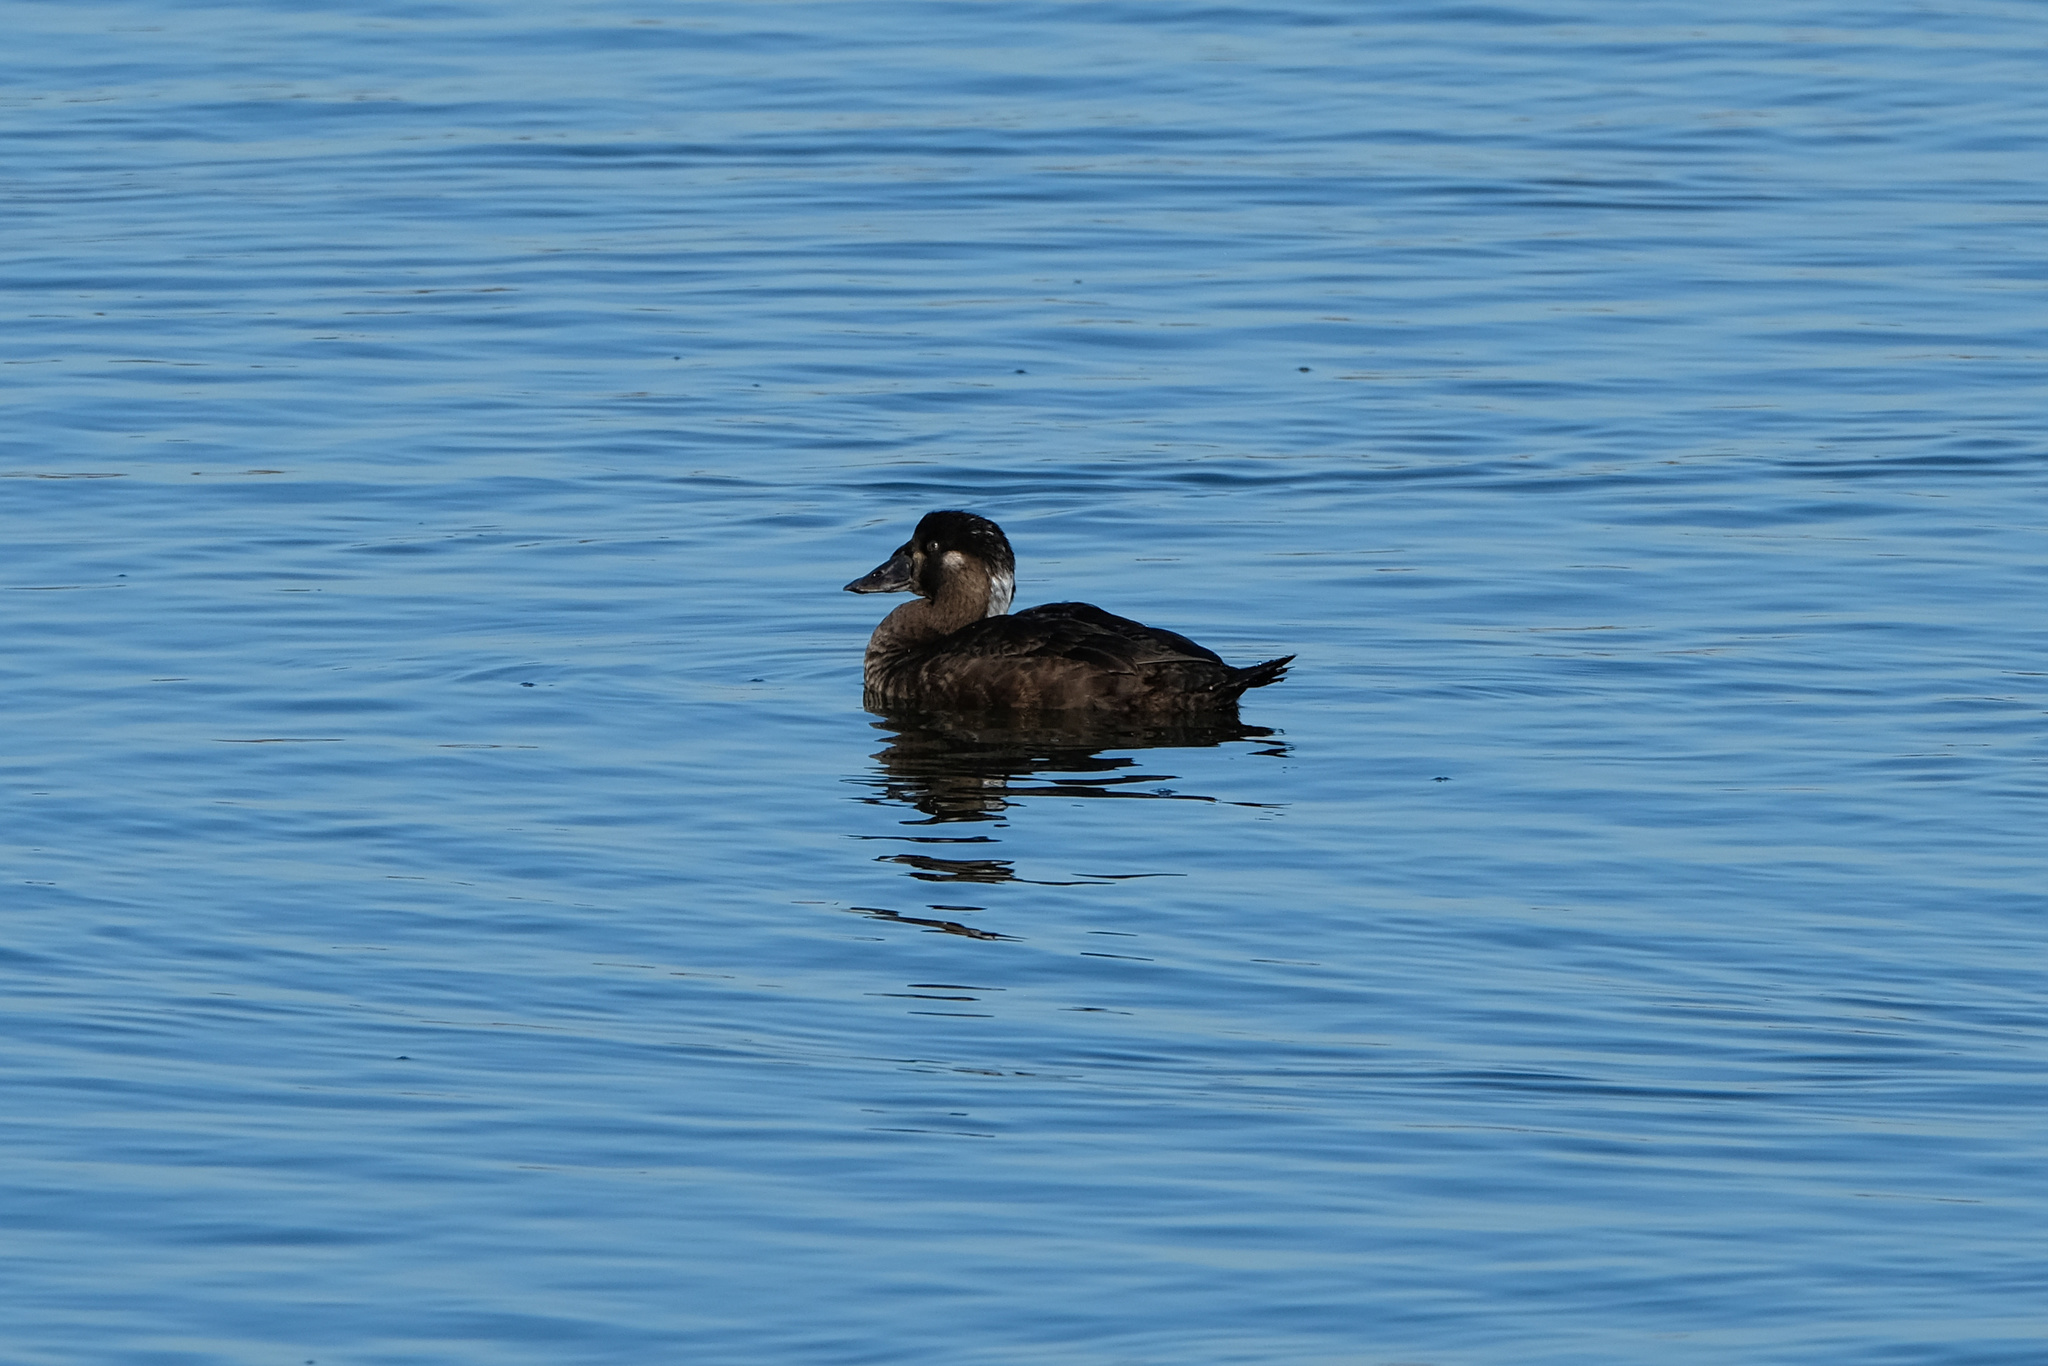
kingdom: Animalia
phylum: Chordata
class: Aves
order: Anseriformes
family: Anatidae
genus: Melanitta
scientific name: Melanitta perspicillata
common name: Surf scoter
